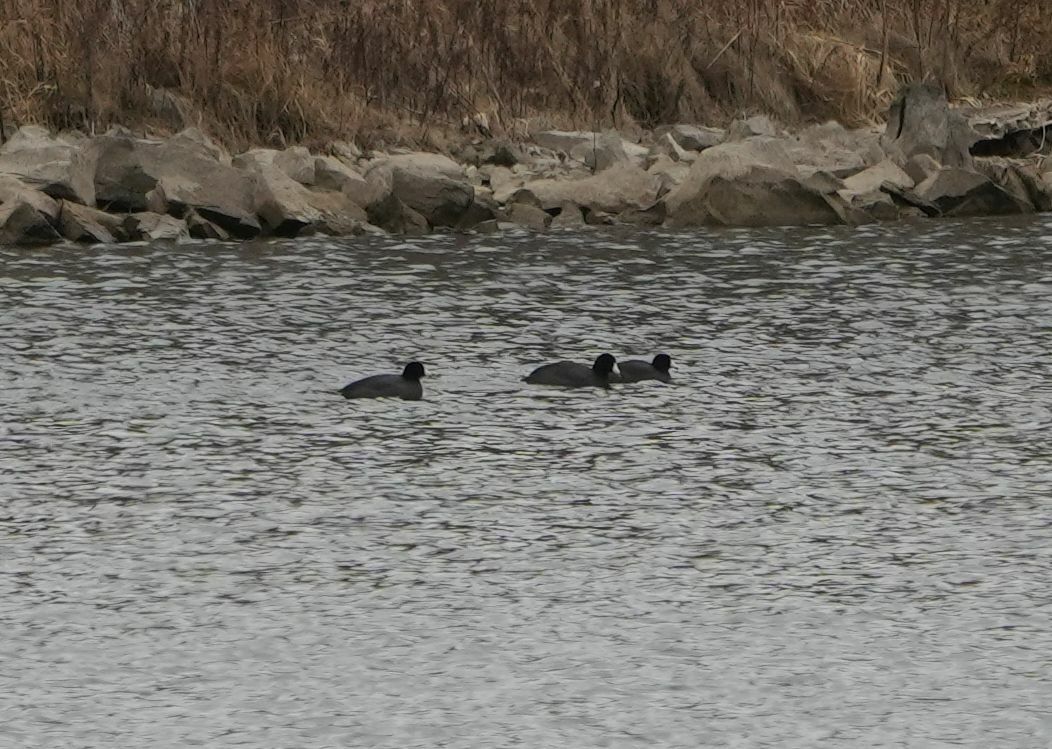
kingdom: Animalia
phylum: Chordata
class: Aves
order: Gruiformes
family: Rallidae
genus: Fulica
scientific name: Fulica americana
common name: American coot
